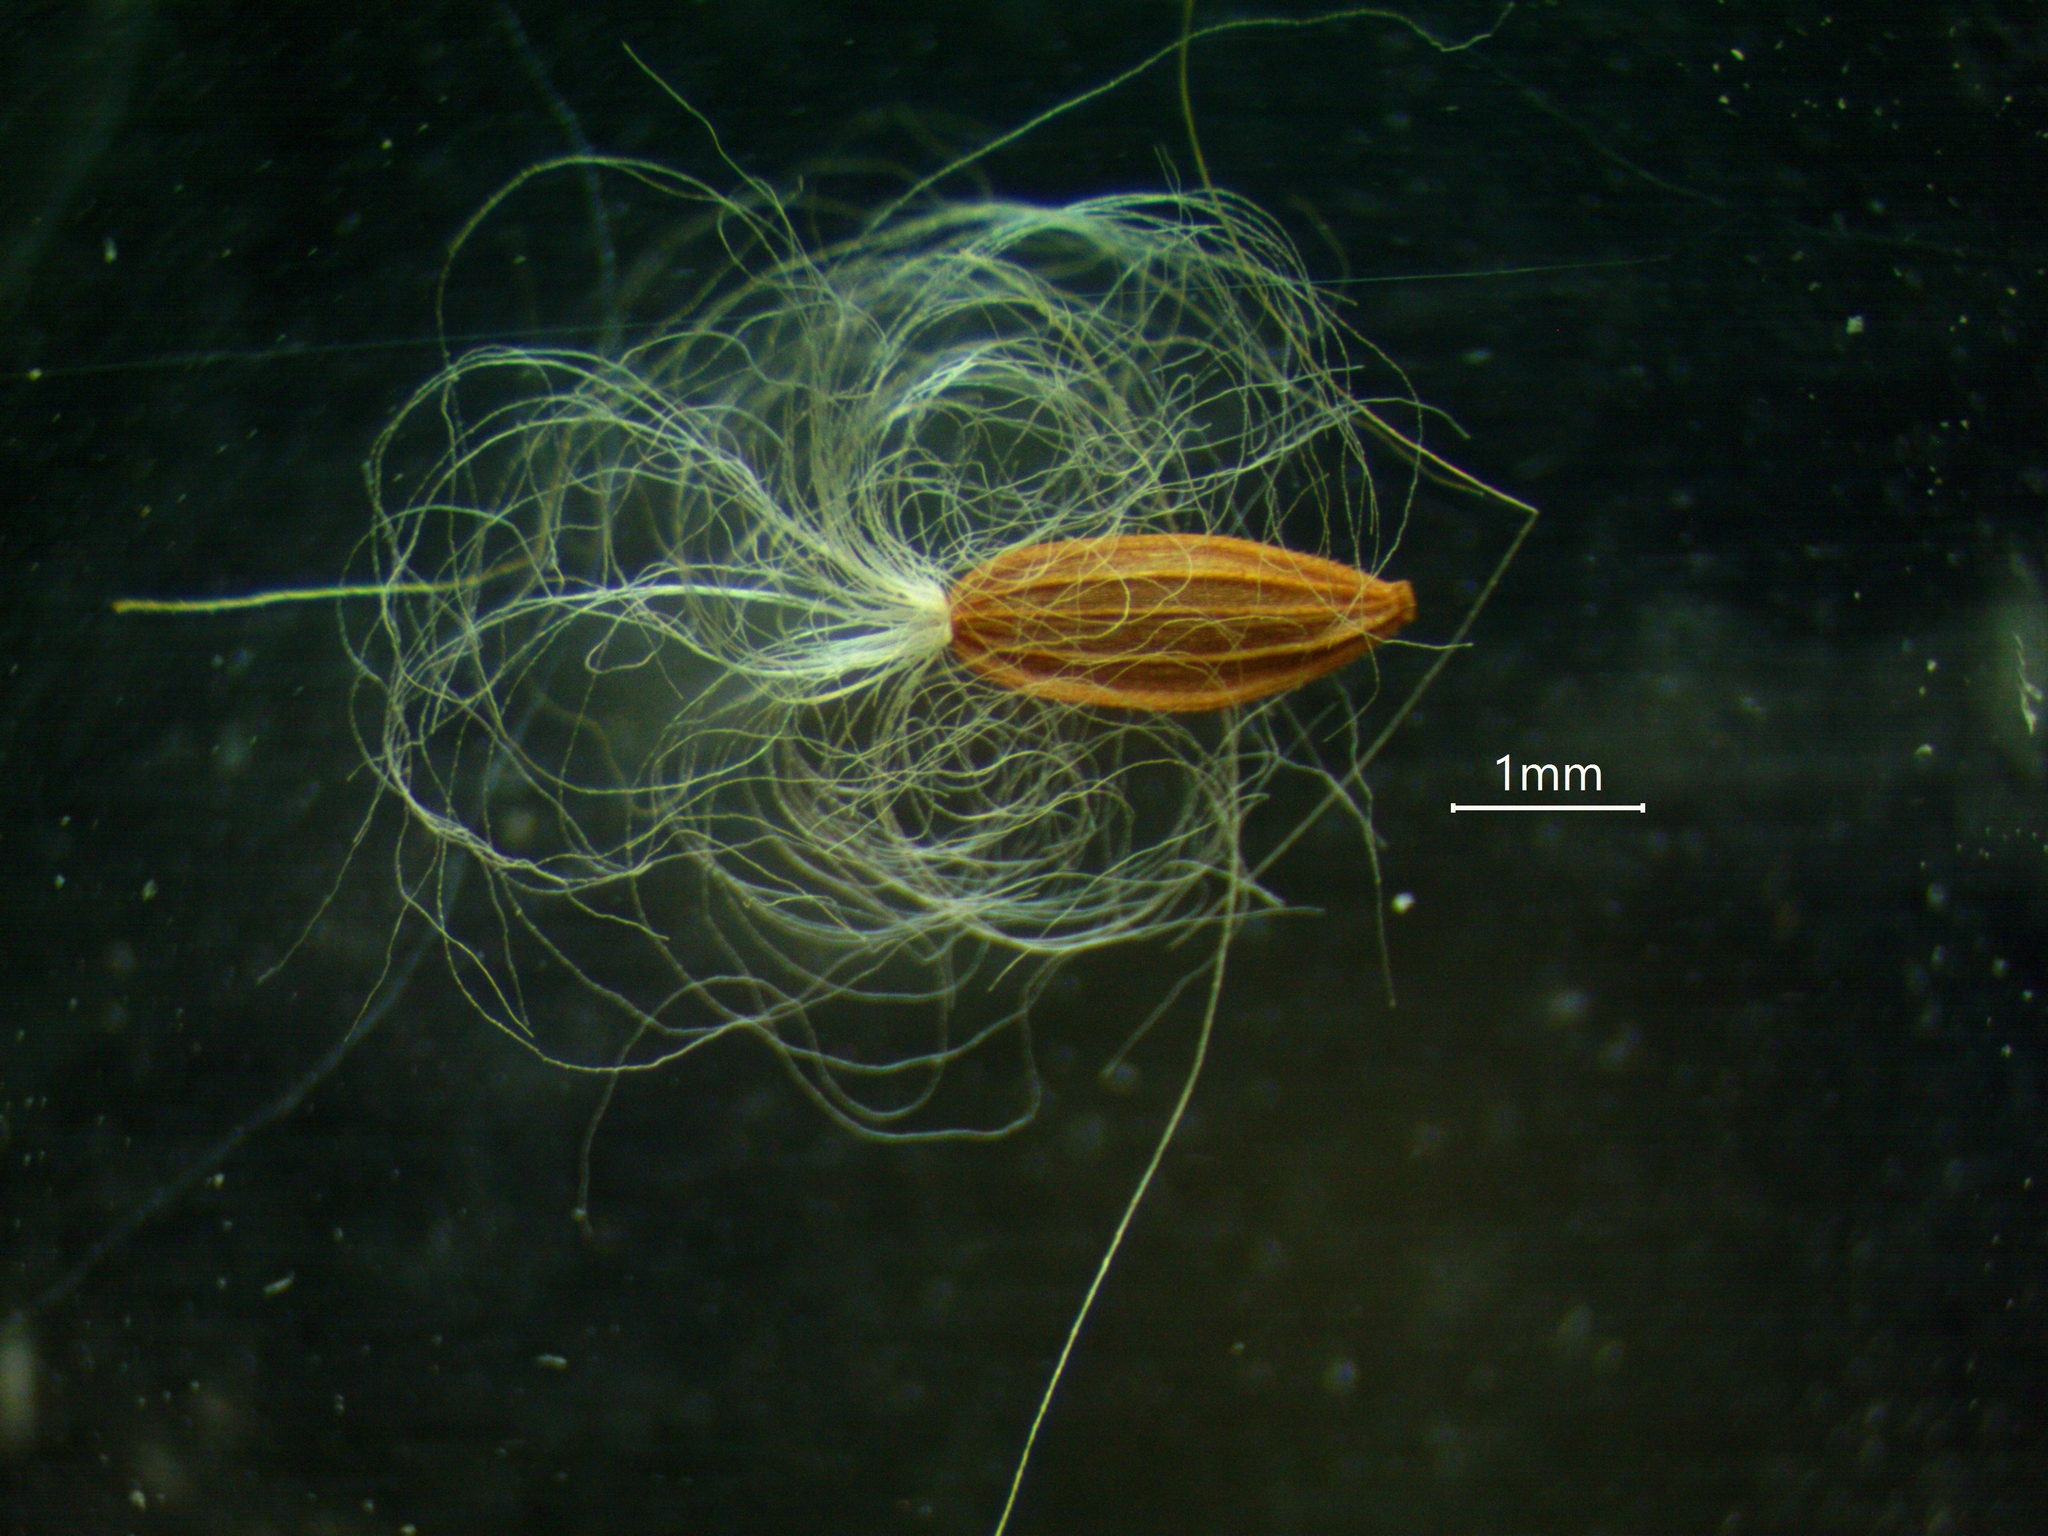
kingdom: Plantae
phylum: Tracheophyta
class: Magnoliopsida
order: Asterales
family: Asteraceae
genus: Sonchus
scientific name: Sonchus arvensis
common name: Perennial sow-thistle
